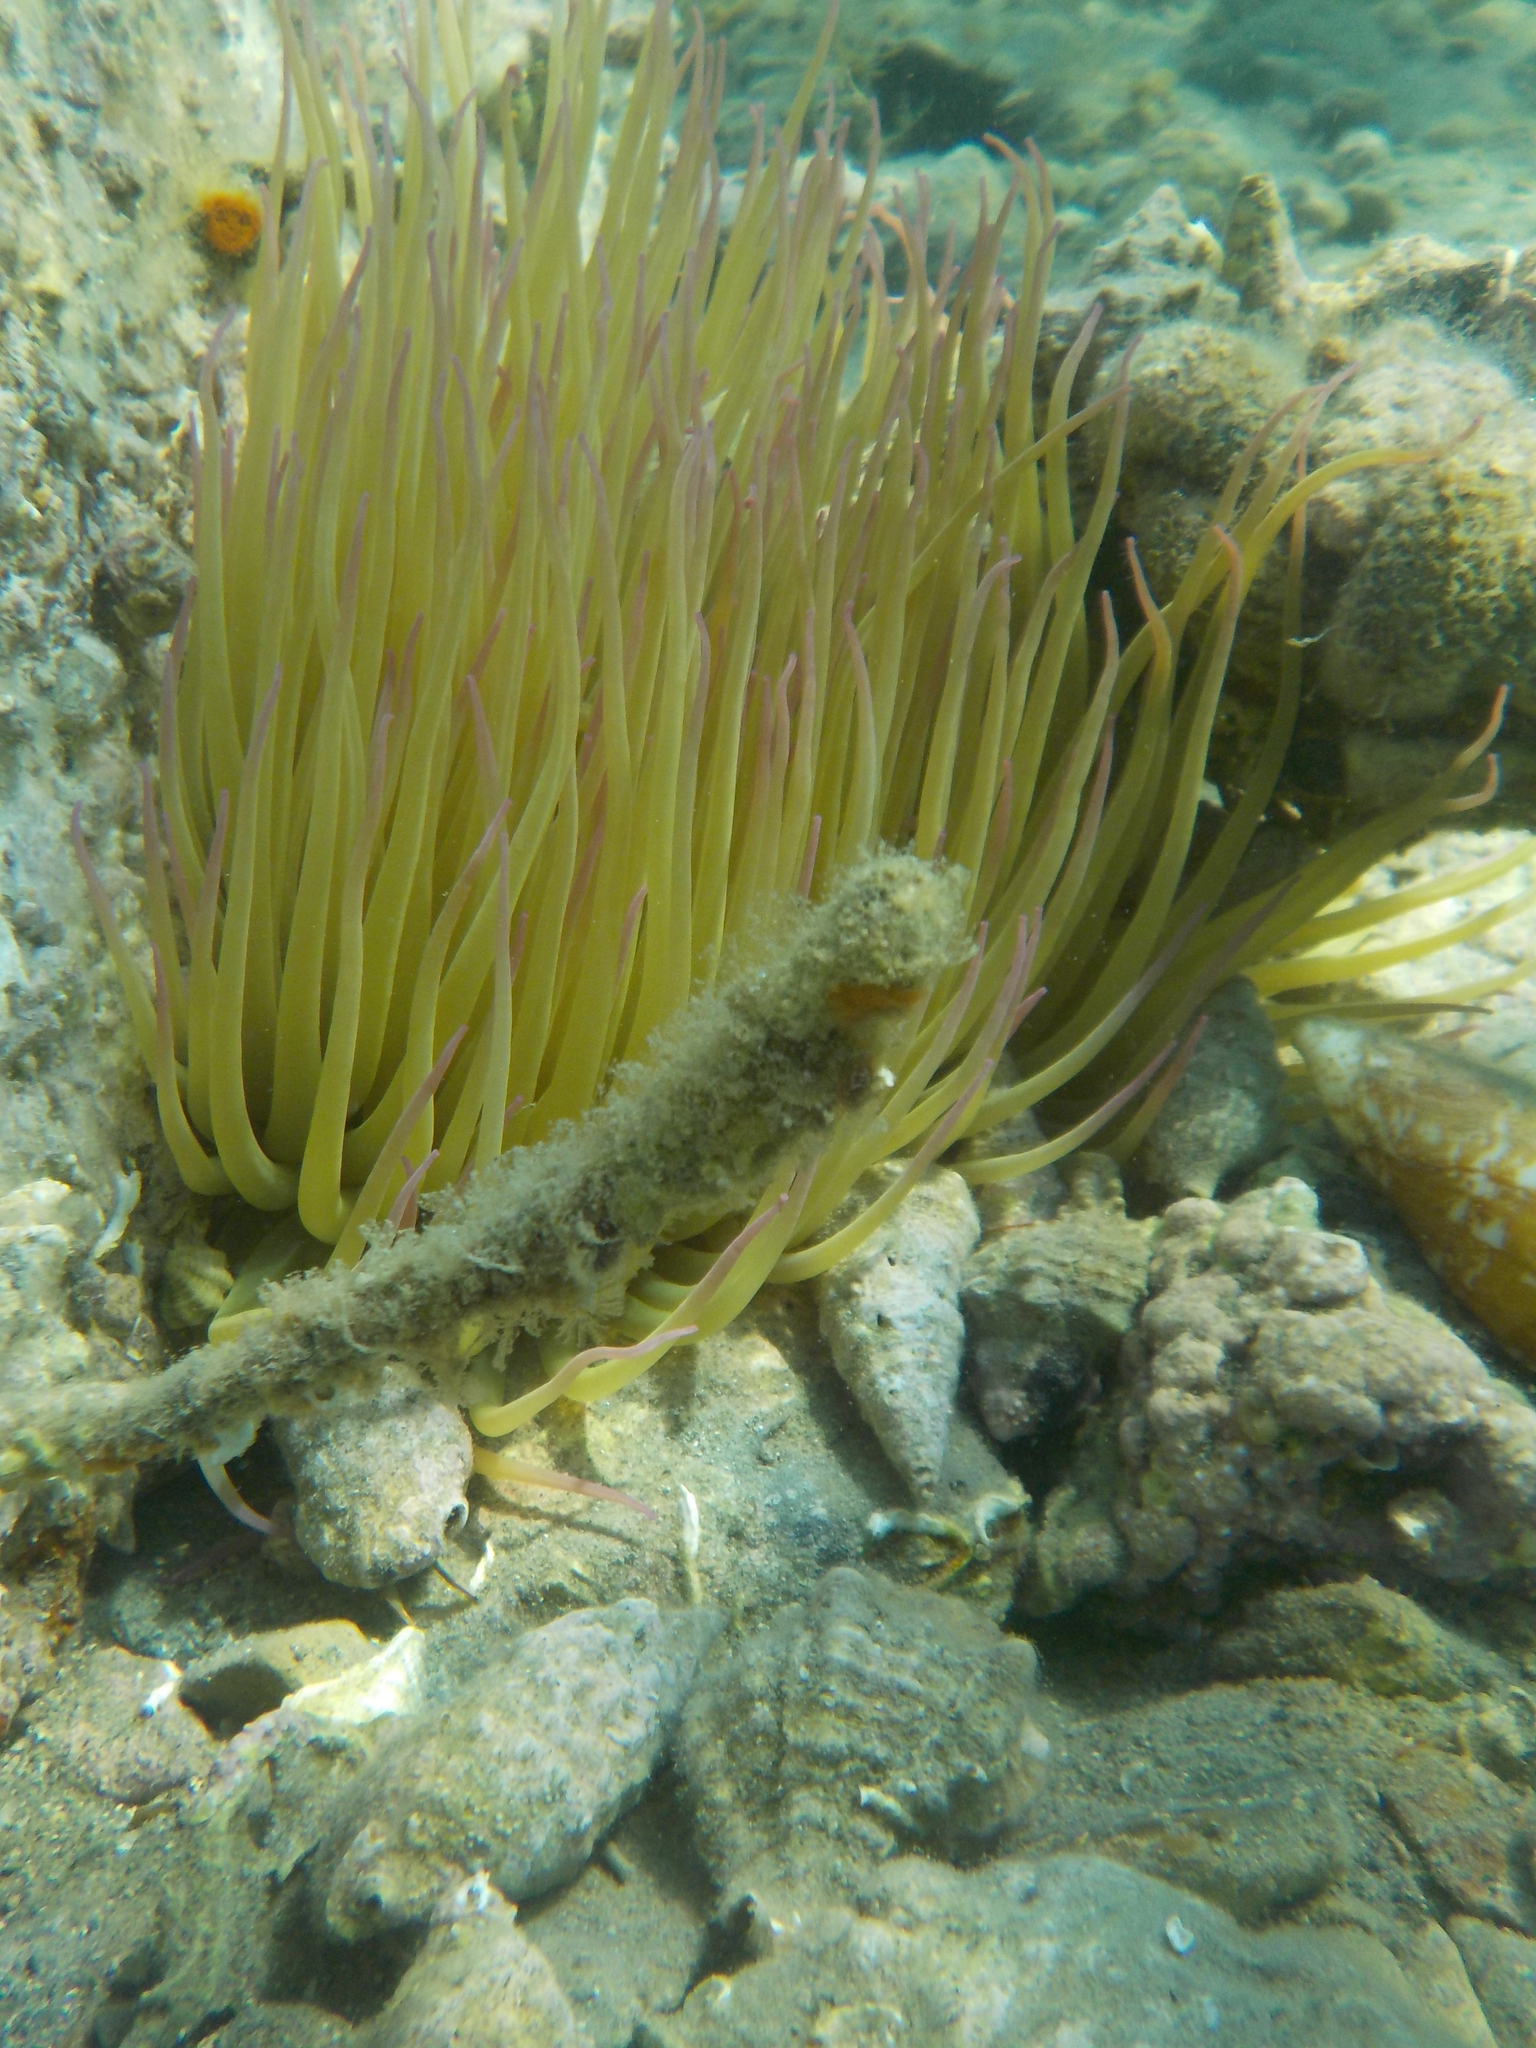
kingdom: Animalia
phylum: Cnidaria
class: Anthozoa
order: Actiniaria
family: Actiniidae
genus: Anemonia
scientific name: Anemonia viridis
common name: Snakelocks anemone
